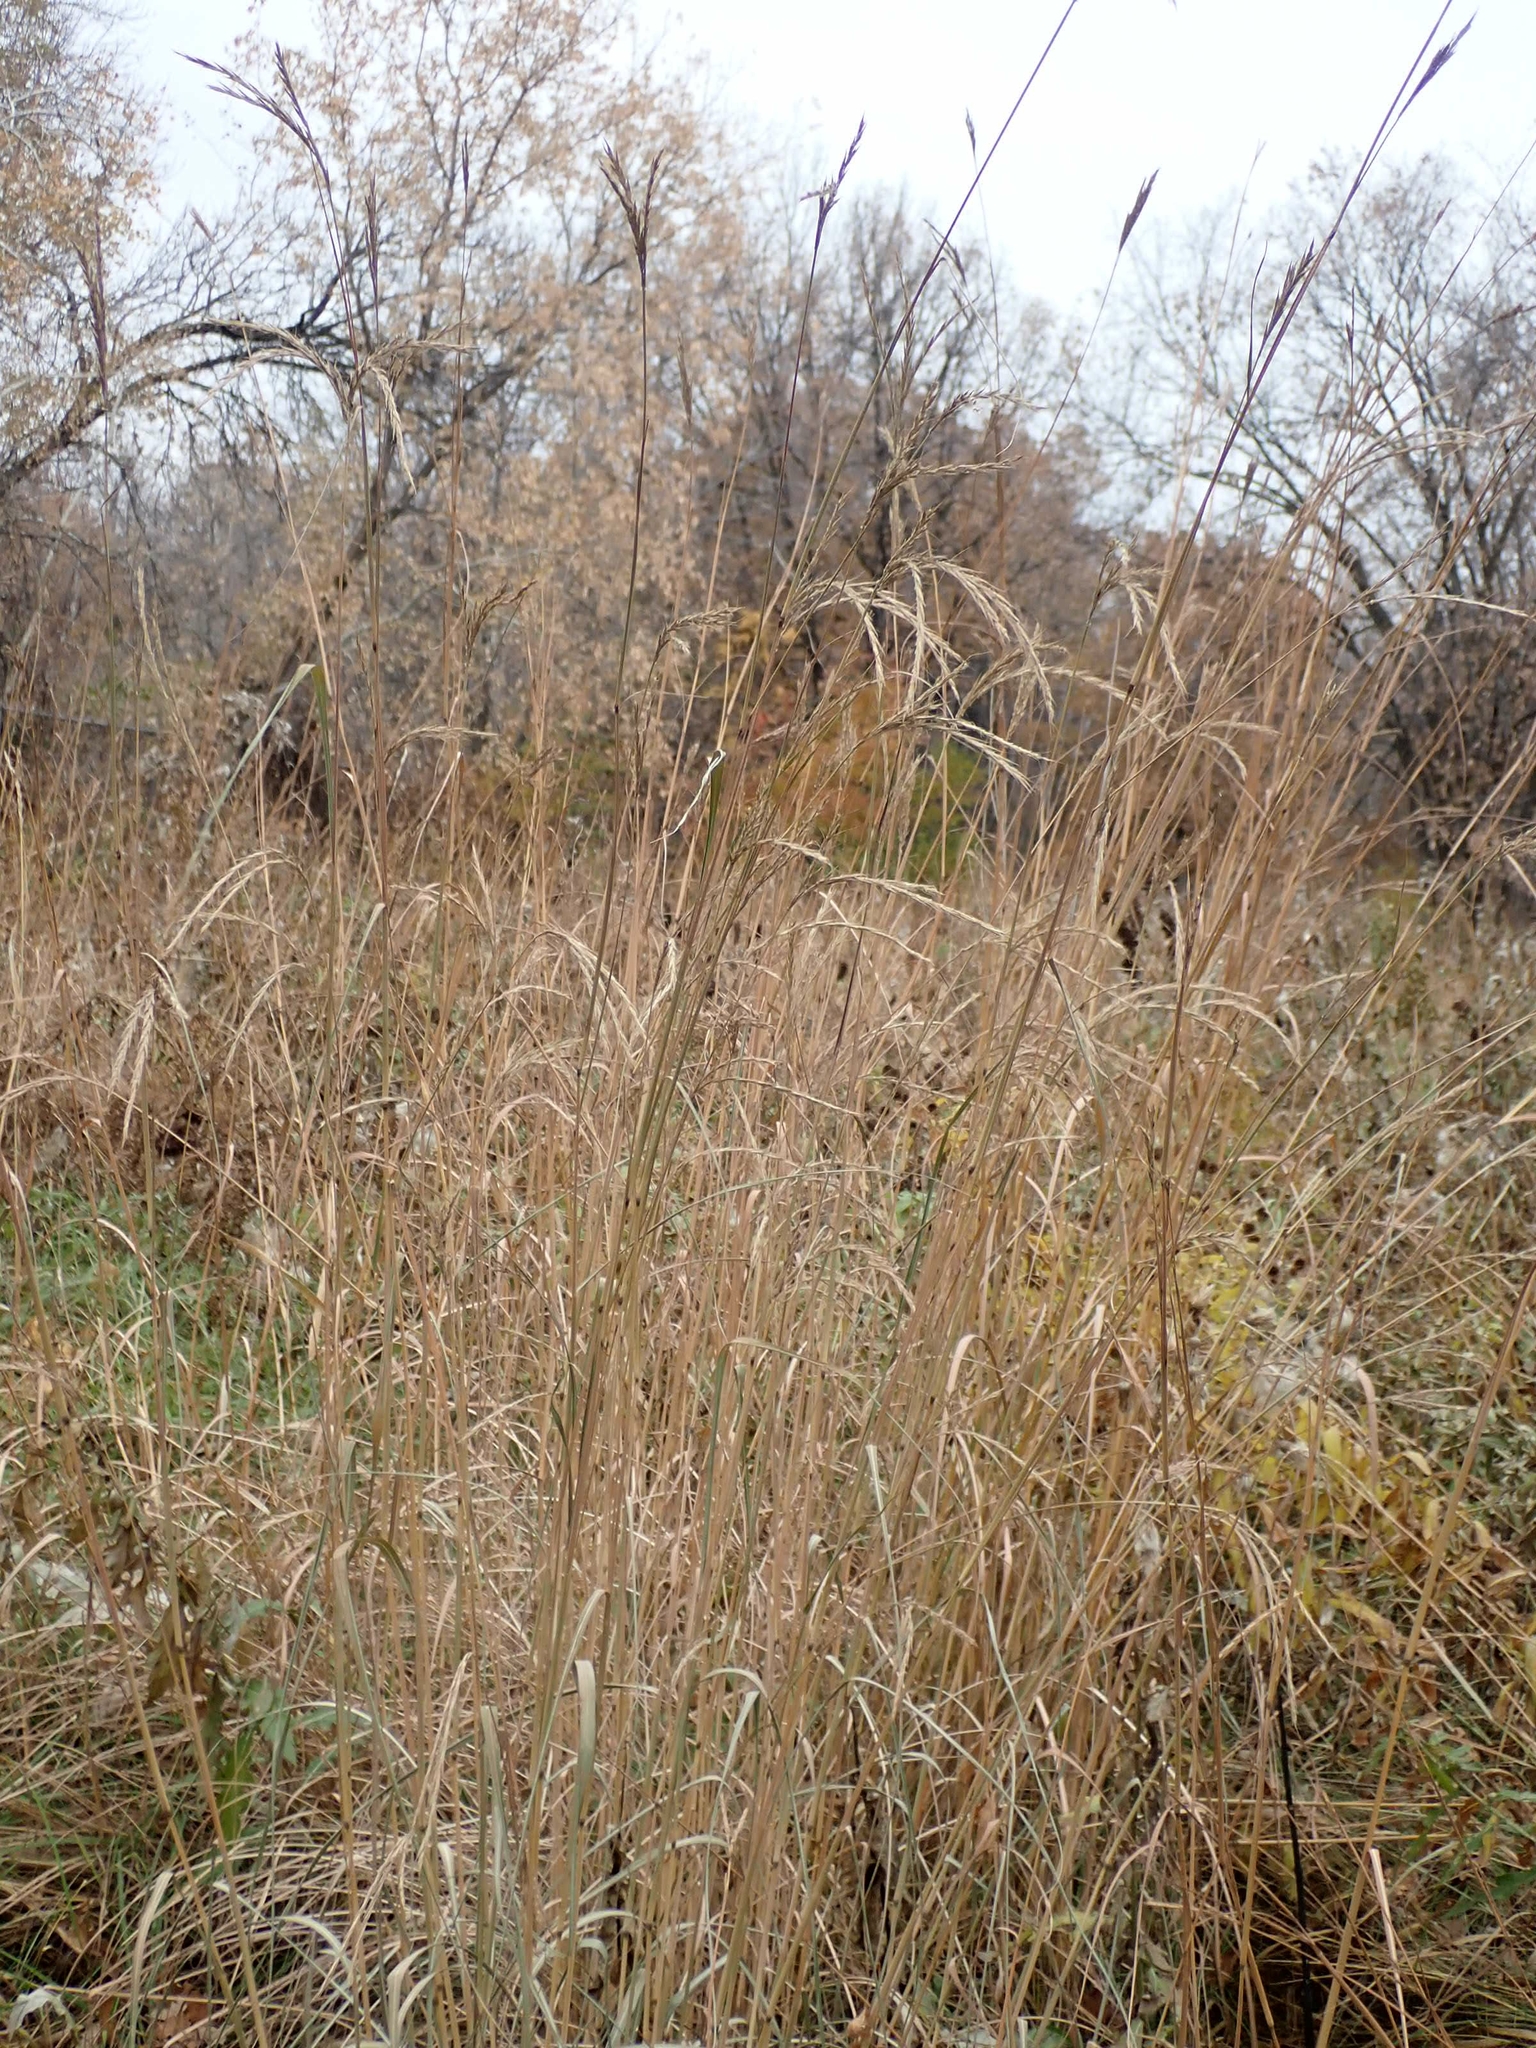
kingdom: Plantae
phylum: Tracheophyta
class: Liliopsida
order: Poales
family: Poaceae
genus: Andropogon
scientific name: Andropogon gerardi
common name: Big bluestem
